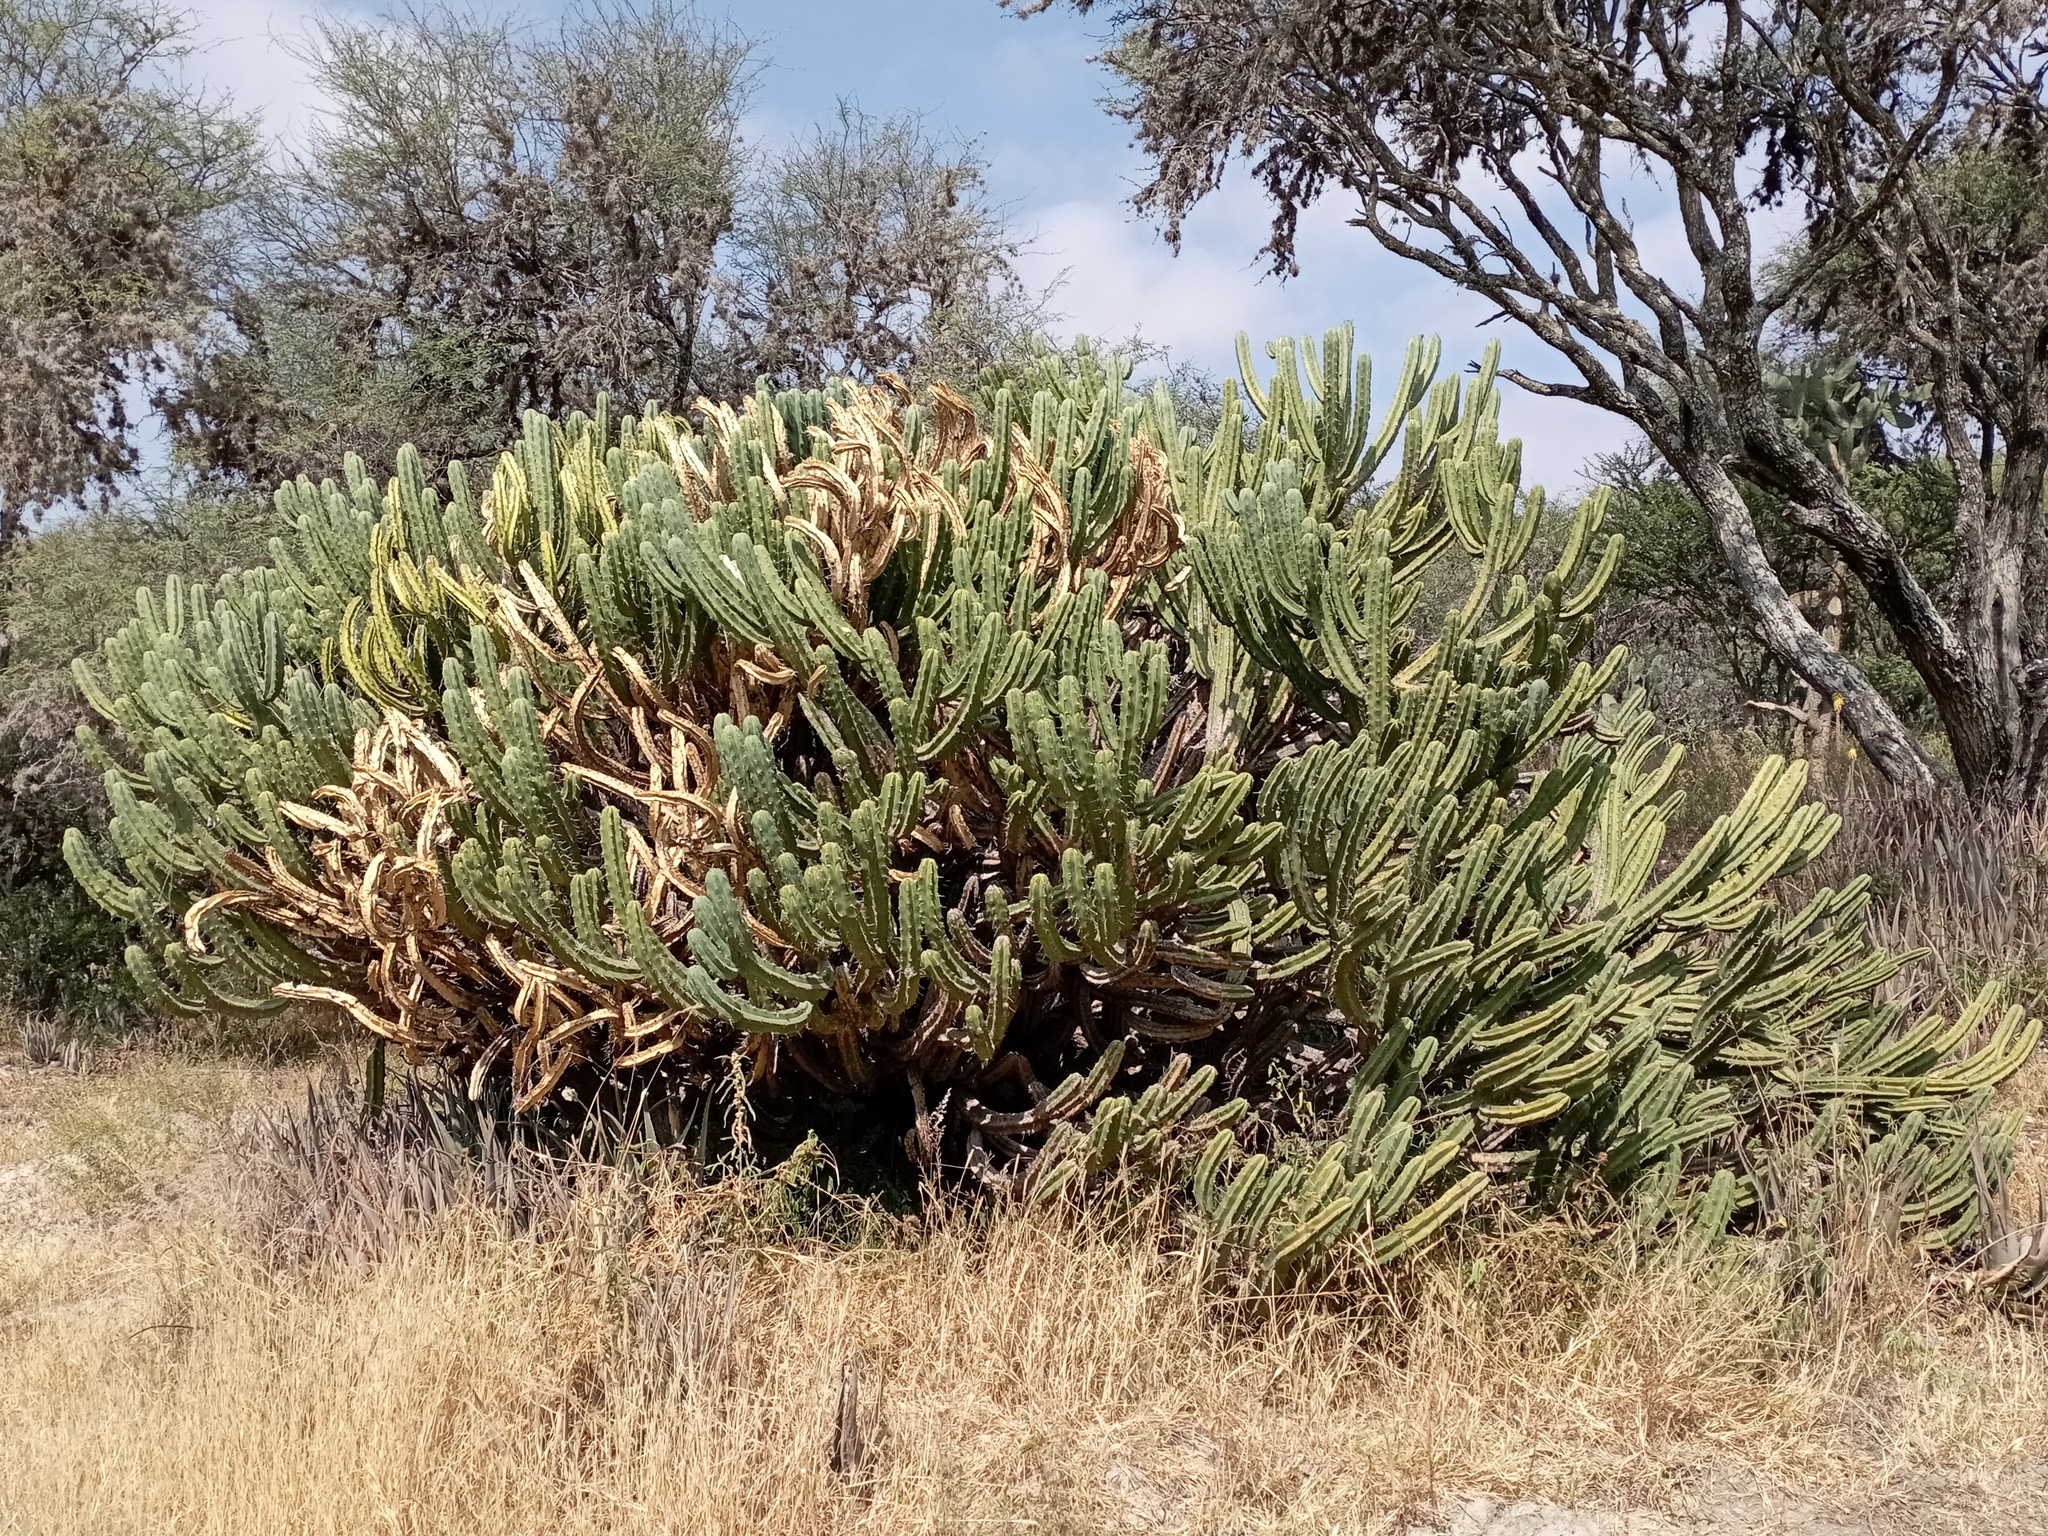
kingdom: Plantae
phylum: Tracheophyta
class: Magnoliopsida
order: Caryophyllales
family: Cactaceae
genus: Myrtillocactus
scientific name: Myrtillocactus geometrizans
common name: Bilberry cactus
